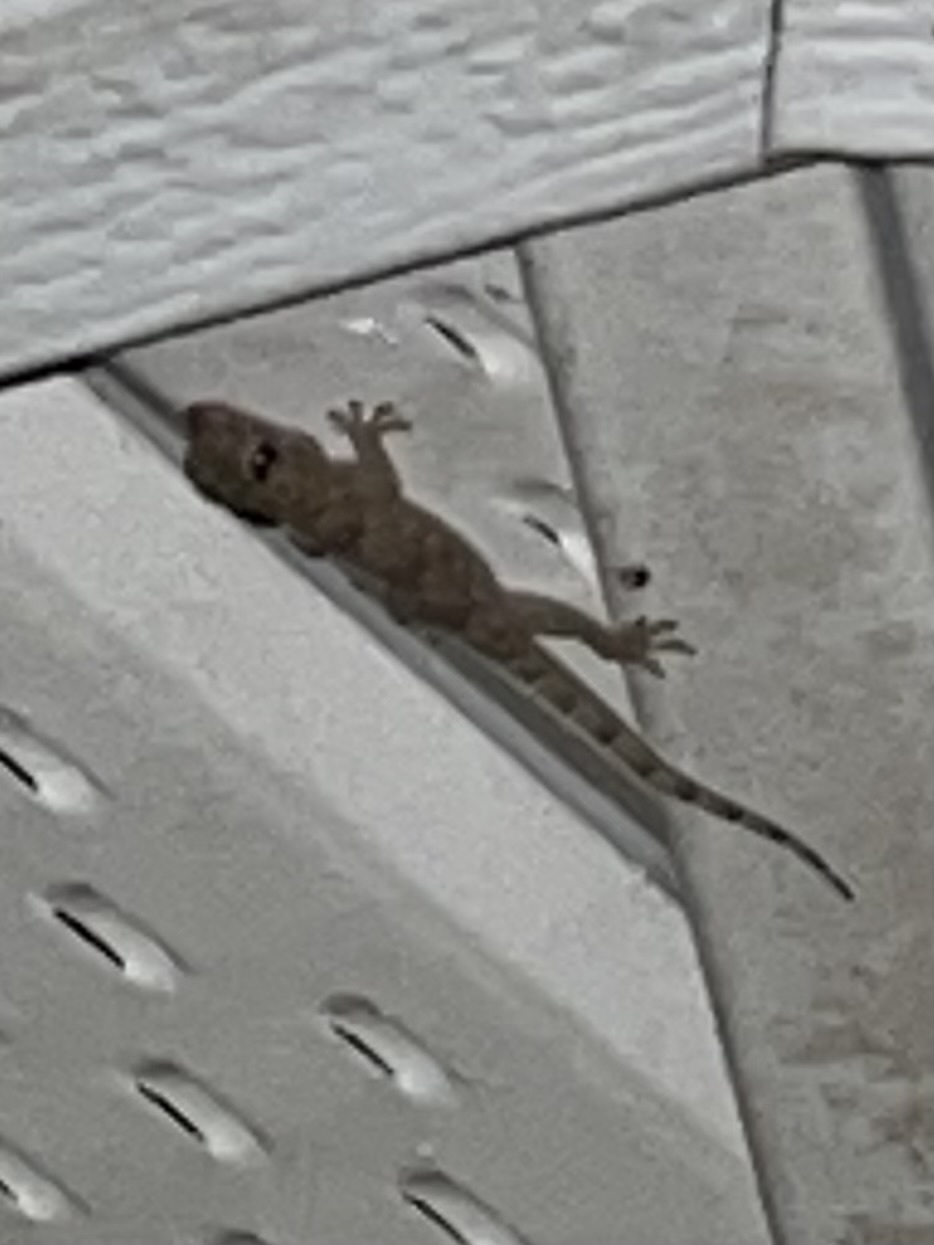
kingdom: Animalia
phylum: Chordata
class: Squamata
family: Gekkonidae
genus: Hemidactylus
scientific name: Hemidactylus mabouia
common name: House gecko
